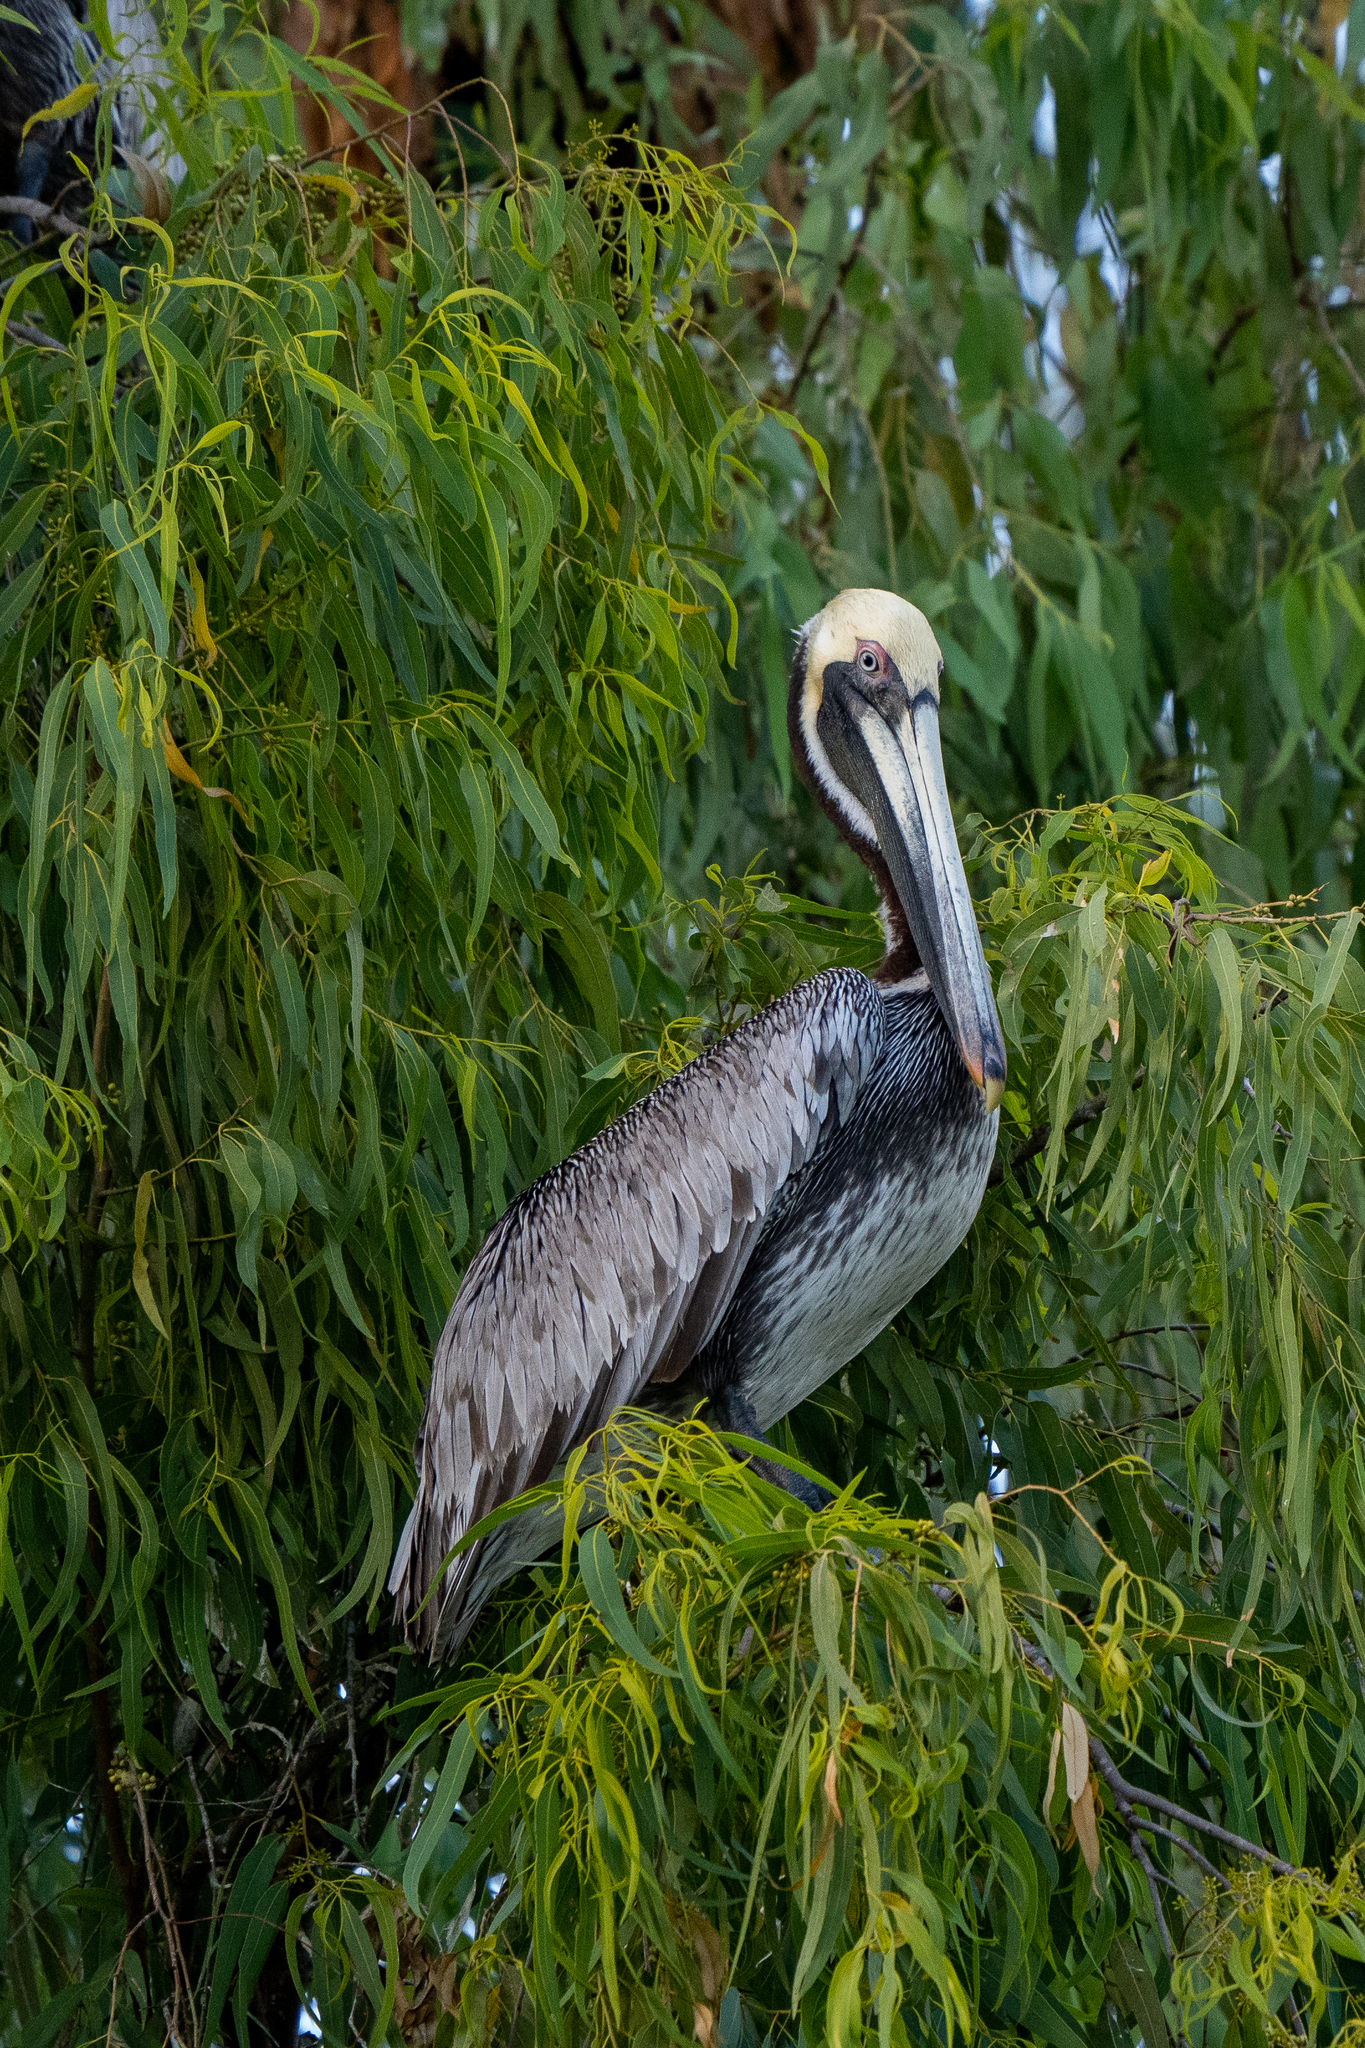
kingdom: Animalia
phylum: Chordata
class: Aves
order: Pelecaniformes
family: Pelecanidae
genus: Pelecanus
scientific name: Pelecanus occidentalis
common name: Brown pelican
